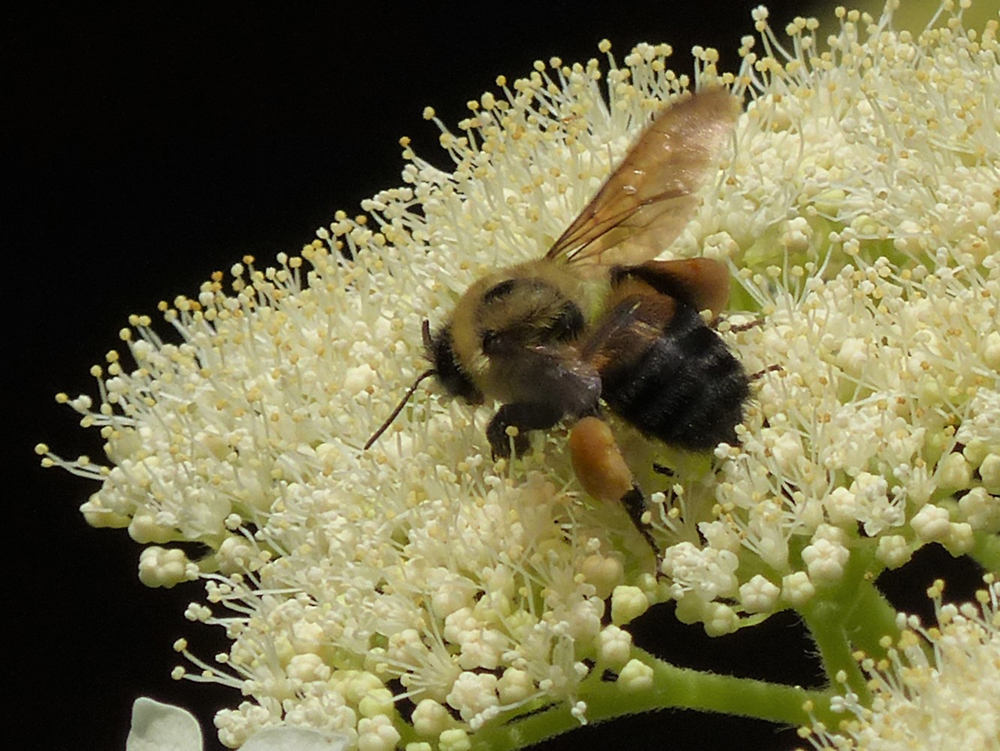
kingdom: Animalia
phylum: Arthropoda
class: Insecta
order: Hymenoptera
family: Apidae
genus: Bombus
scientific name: Bombus griseocollis
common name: Brown-belted bumble bee
